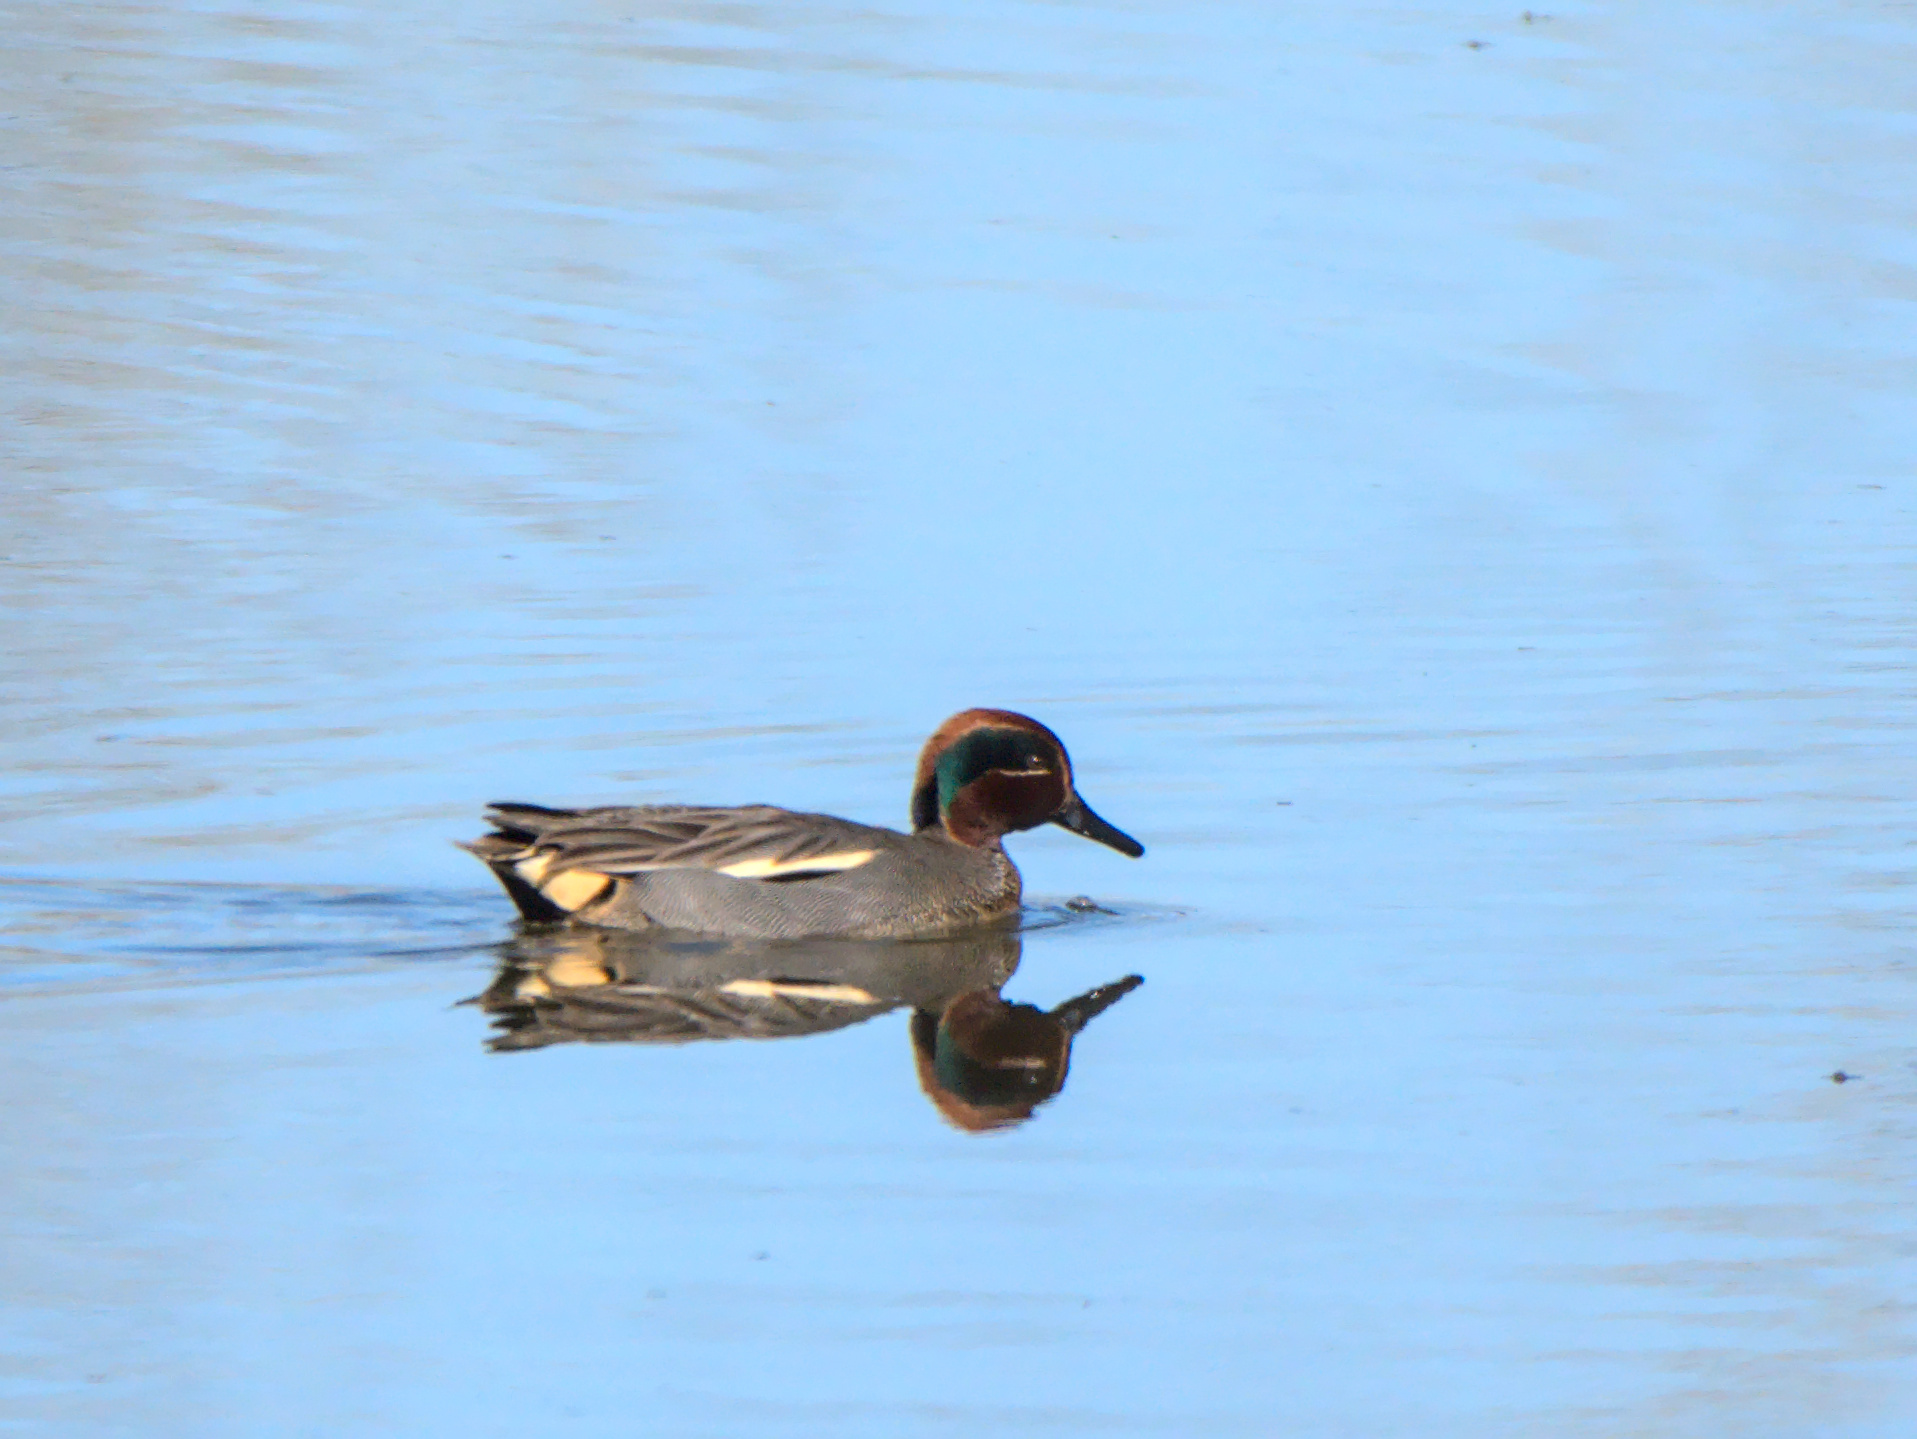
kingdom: Animalia
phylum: Chordata
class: Aves
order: Anseriformes
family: Anatidae
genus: Anas
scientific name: Anas crecca
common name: Eurasian teal
